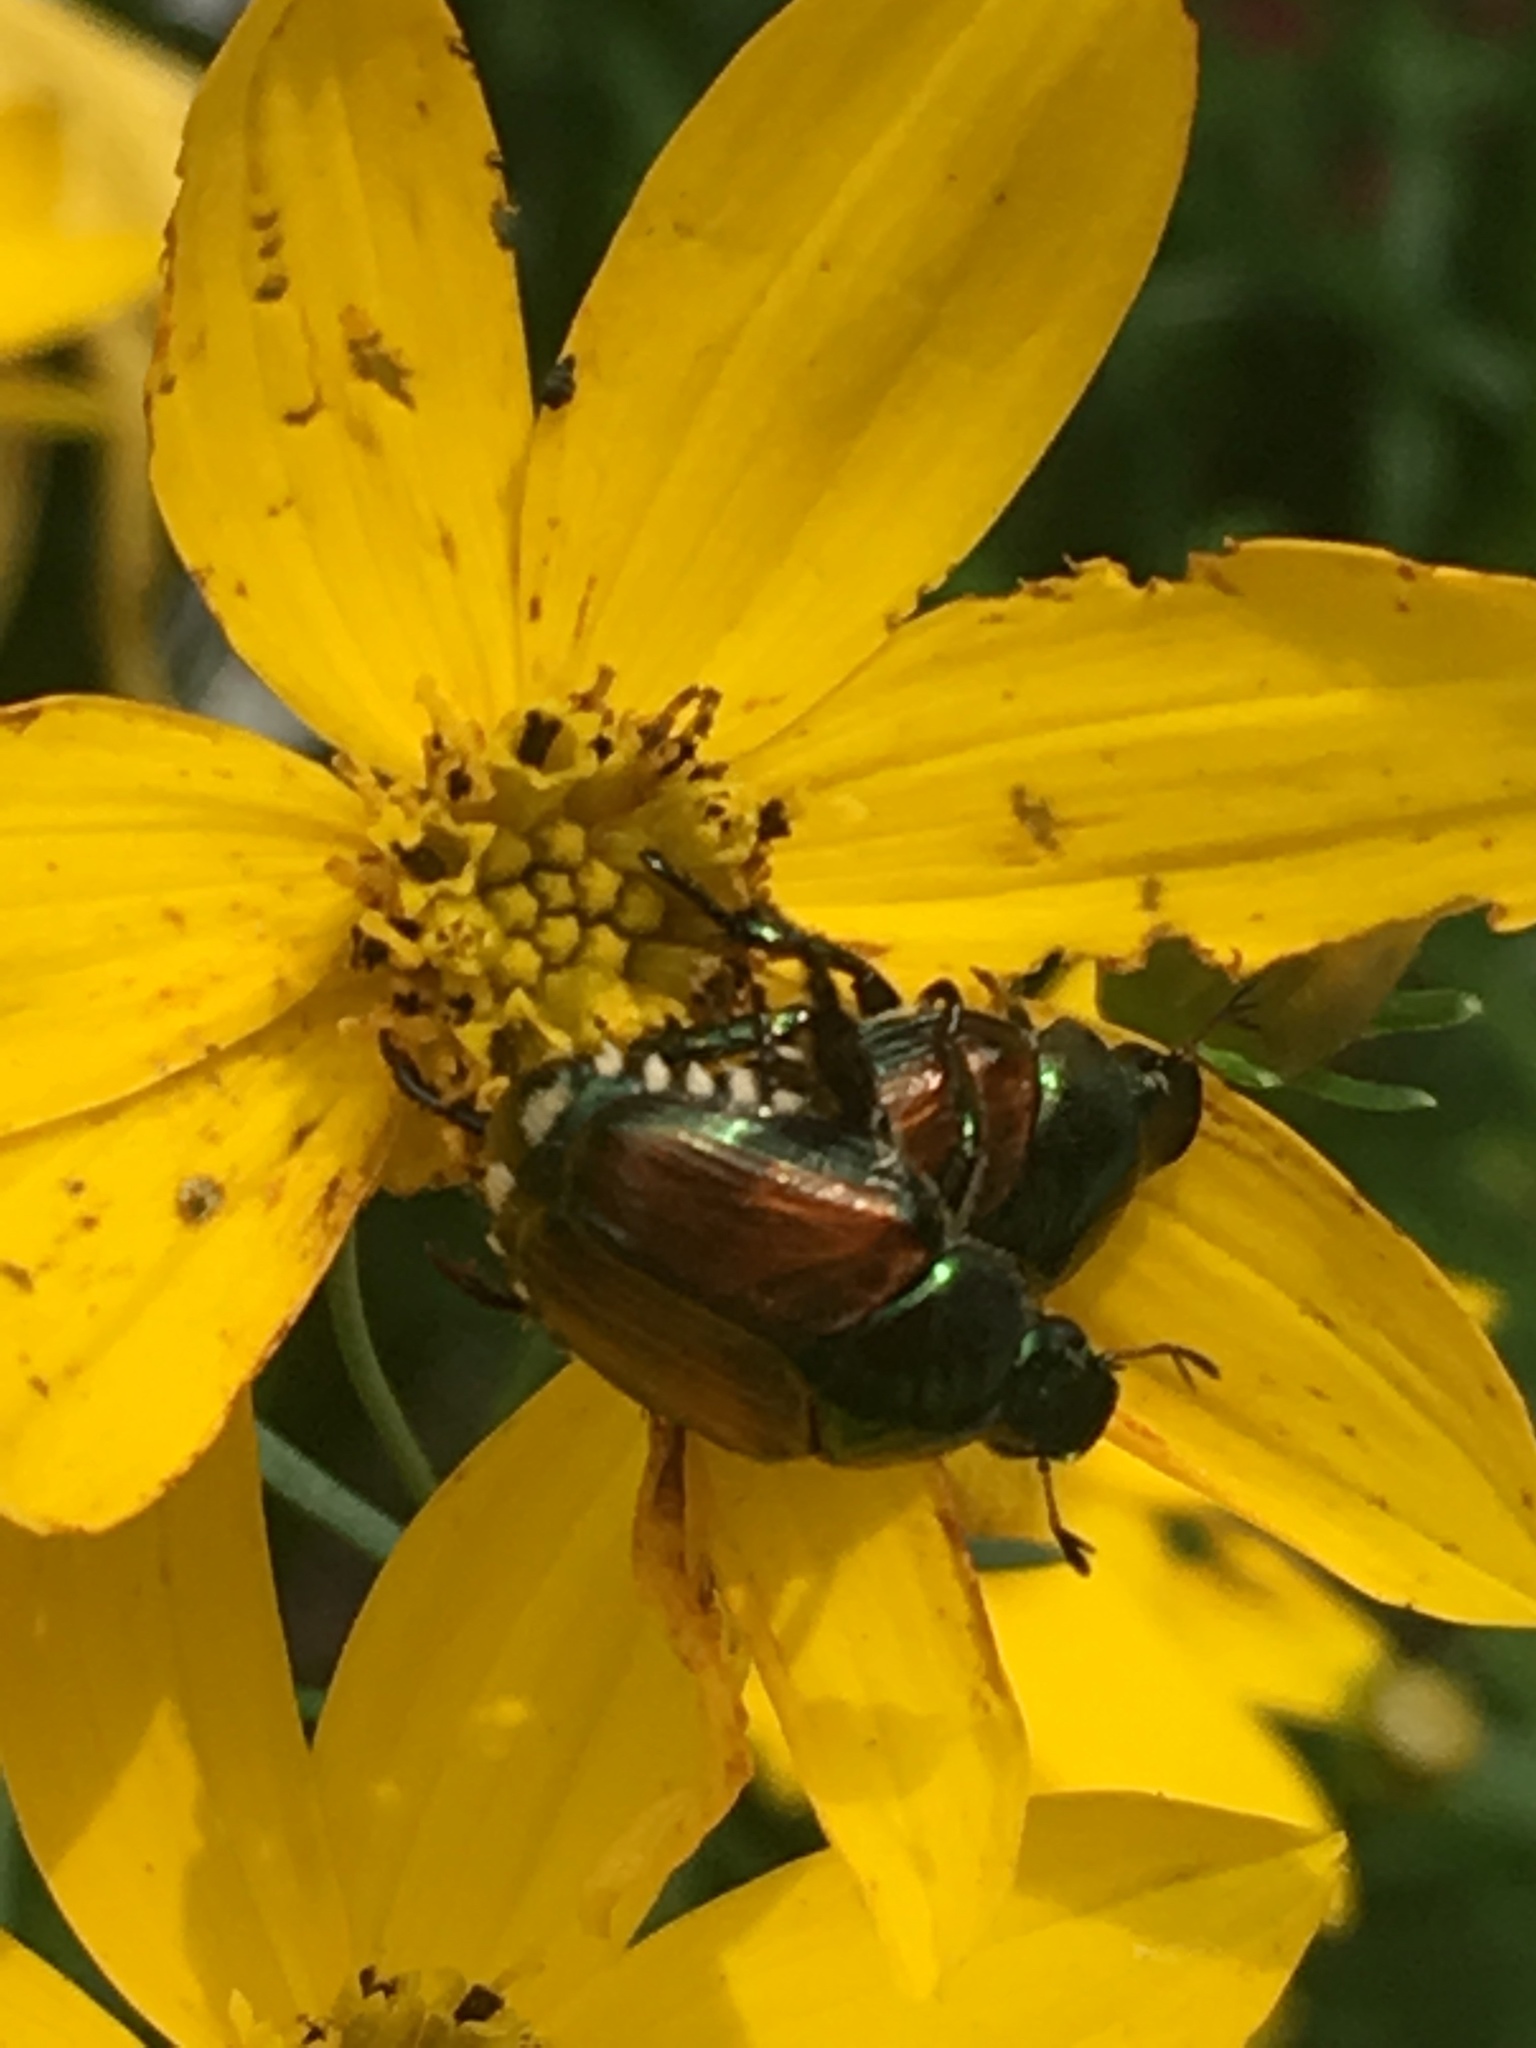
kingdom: Animalia
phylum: Arthropoda
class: Insecta
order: Coleoptera
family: Scarabaeidae
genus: Popillia
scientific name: Popillia japonica
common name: Japanese beetle
